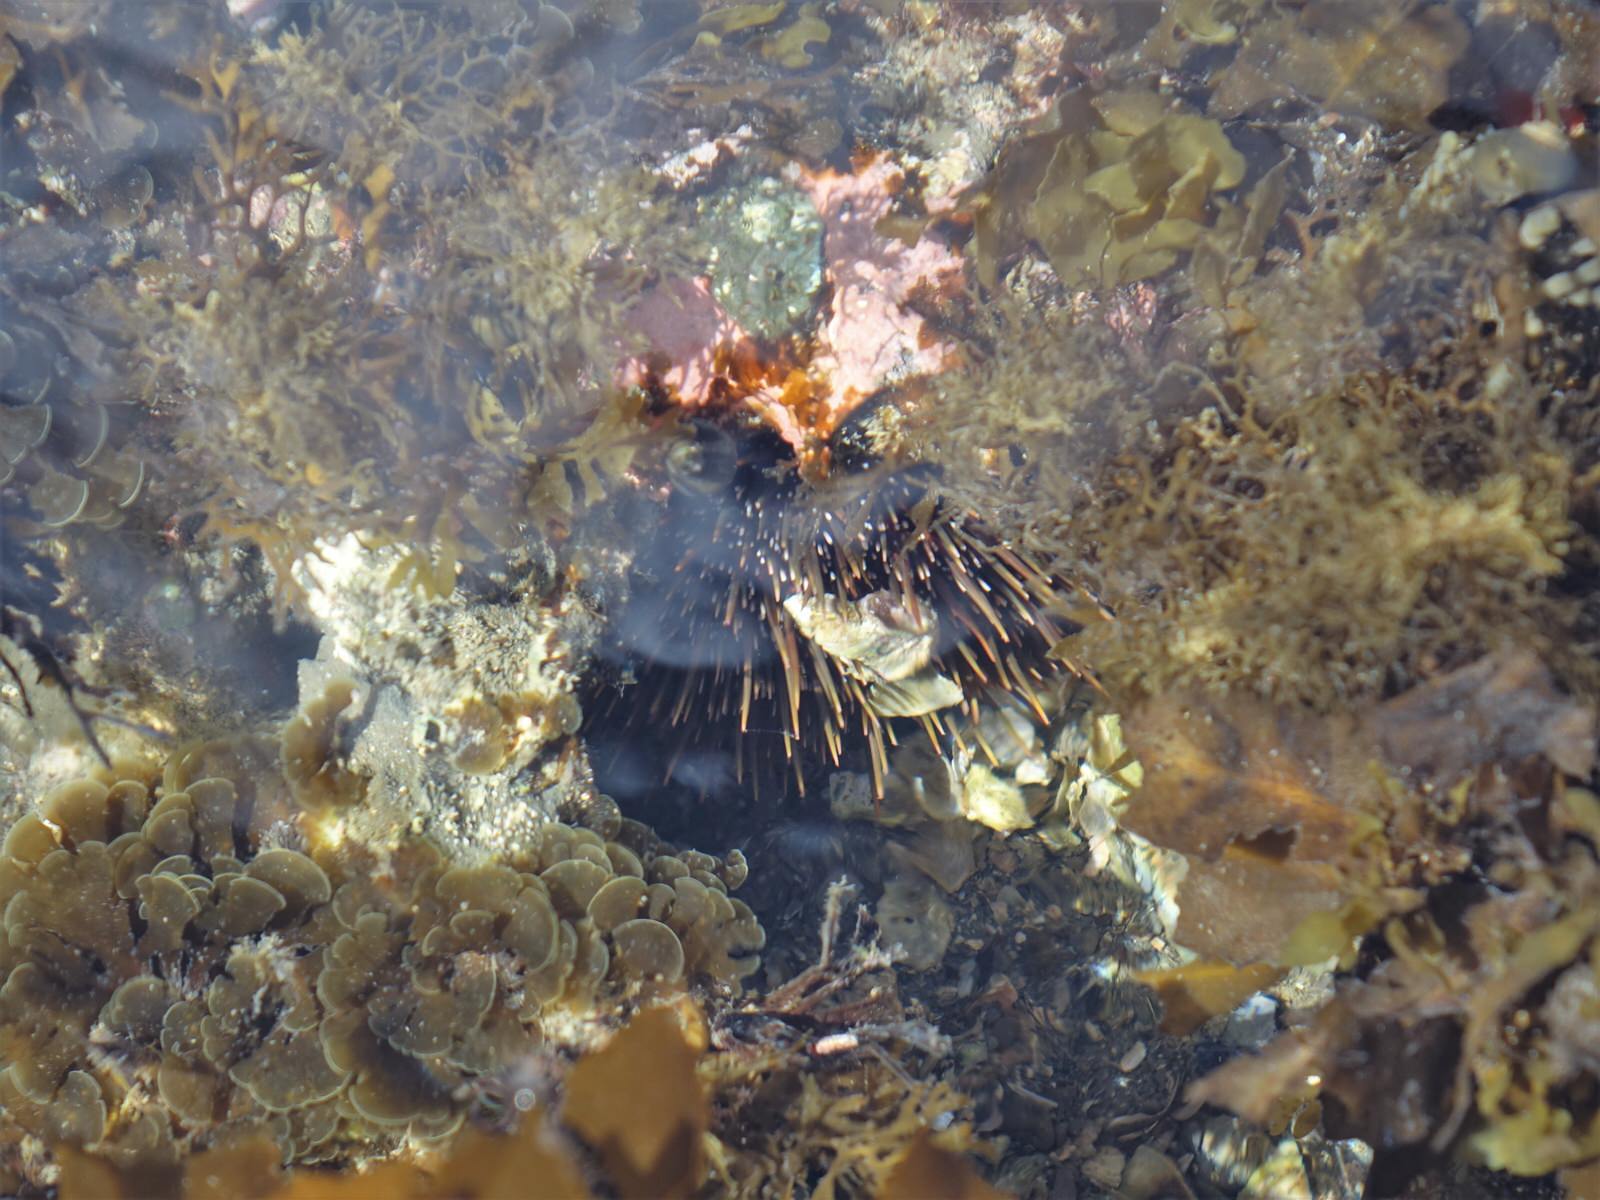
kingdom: Animalia
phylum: Echinodermata
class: Echinoidea
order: Camarodonta
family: Echinometridae
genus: Evechinus
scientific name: Evechinus chloroticus
